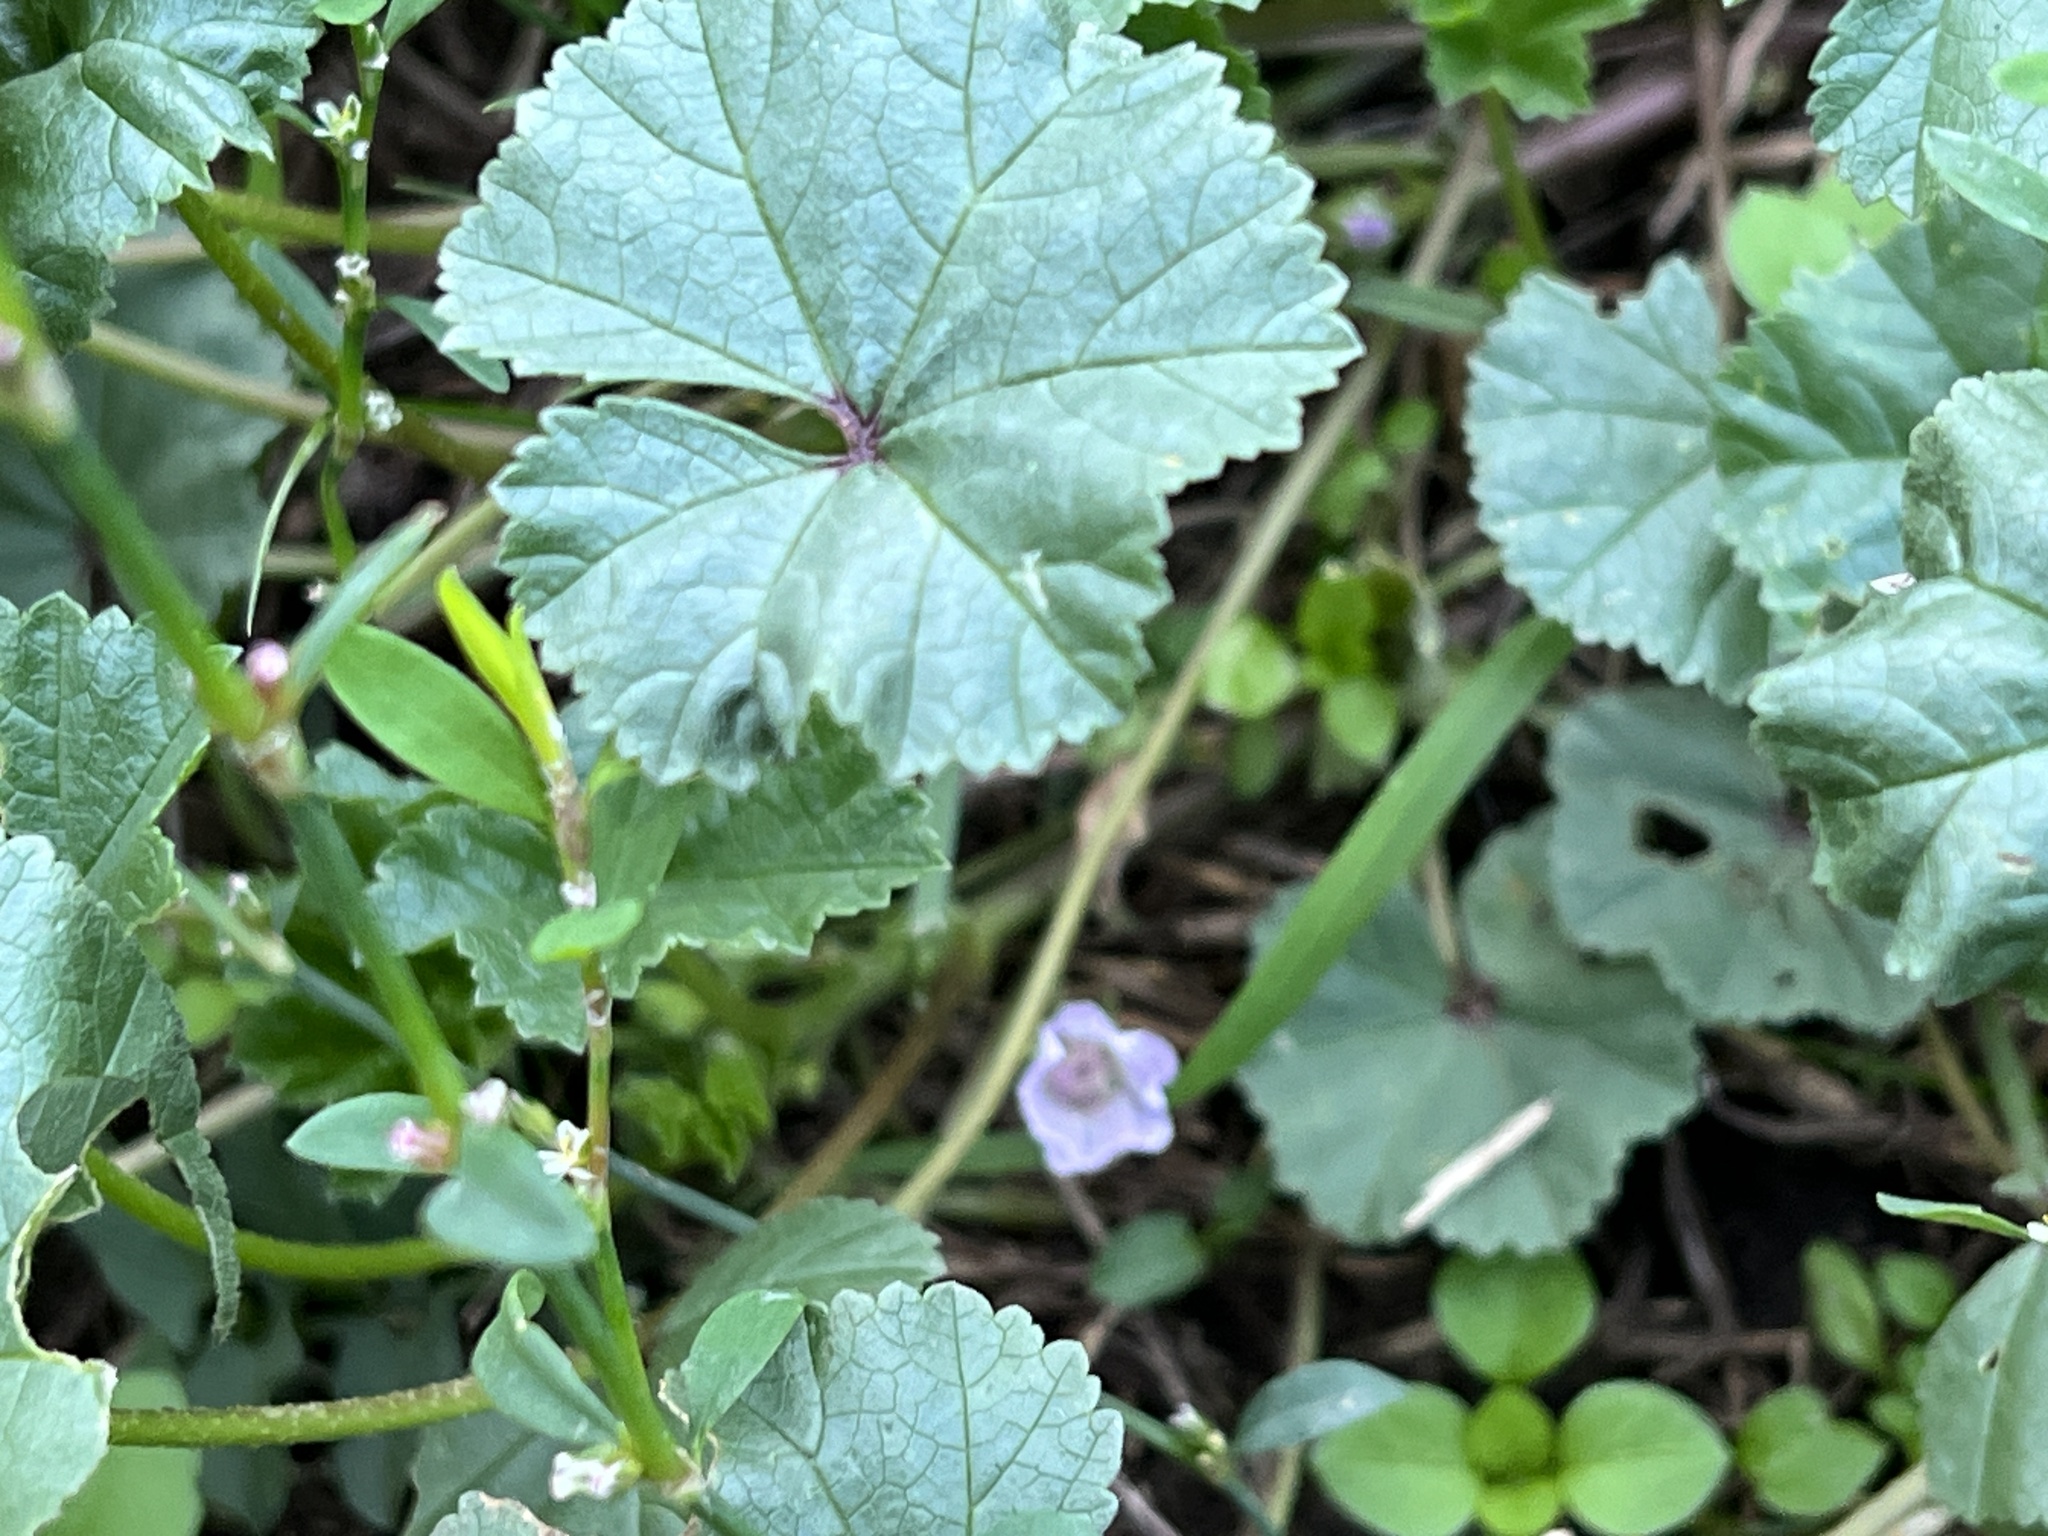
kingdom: Plantae
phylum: Tracheophyta
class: Magnoliopsida
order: Malvales
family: Malvaceae
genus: Malva
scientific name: Malva neglecta
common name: Common mallow
